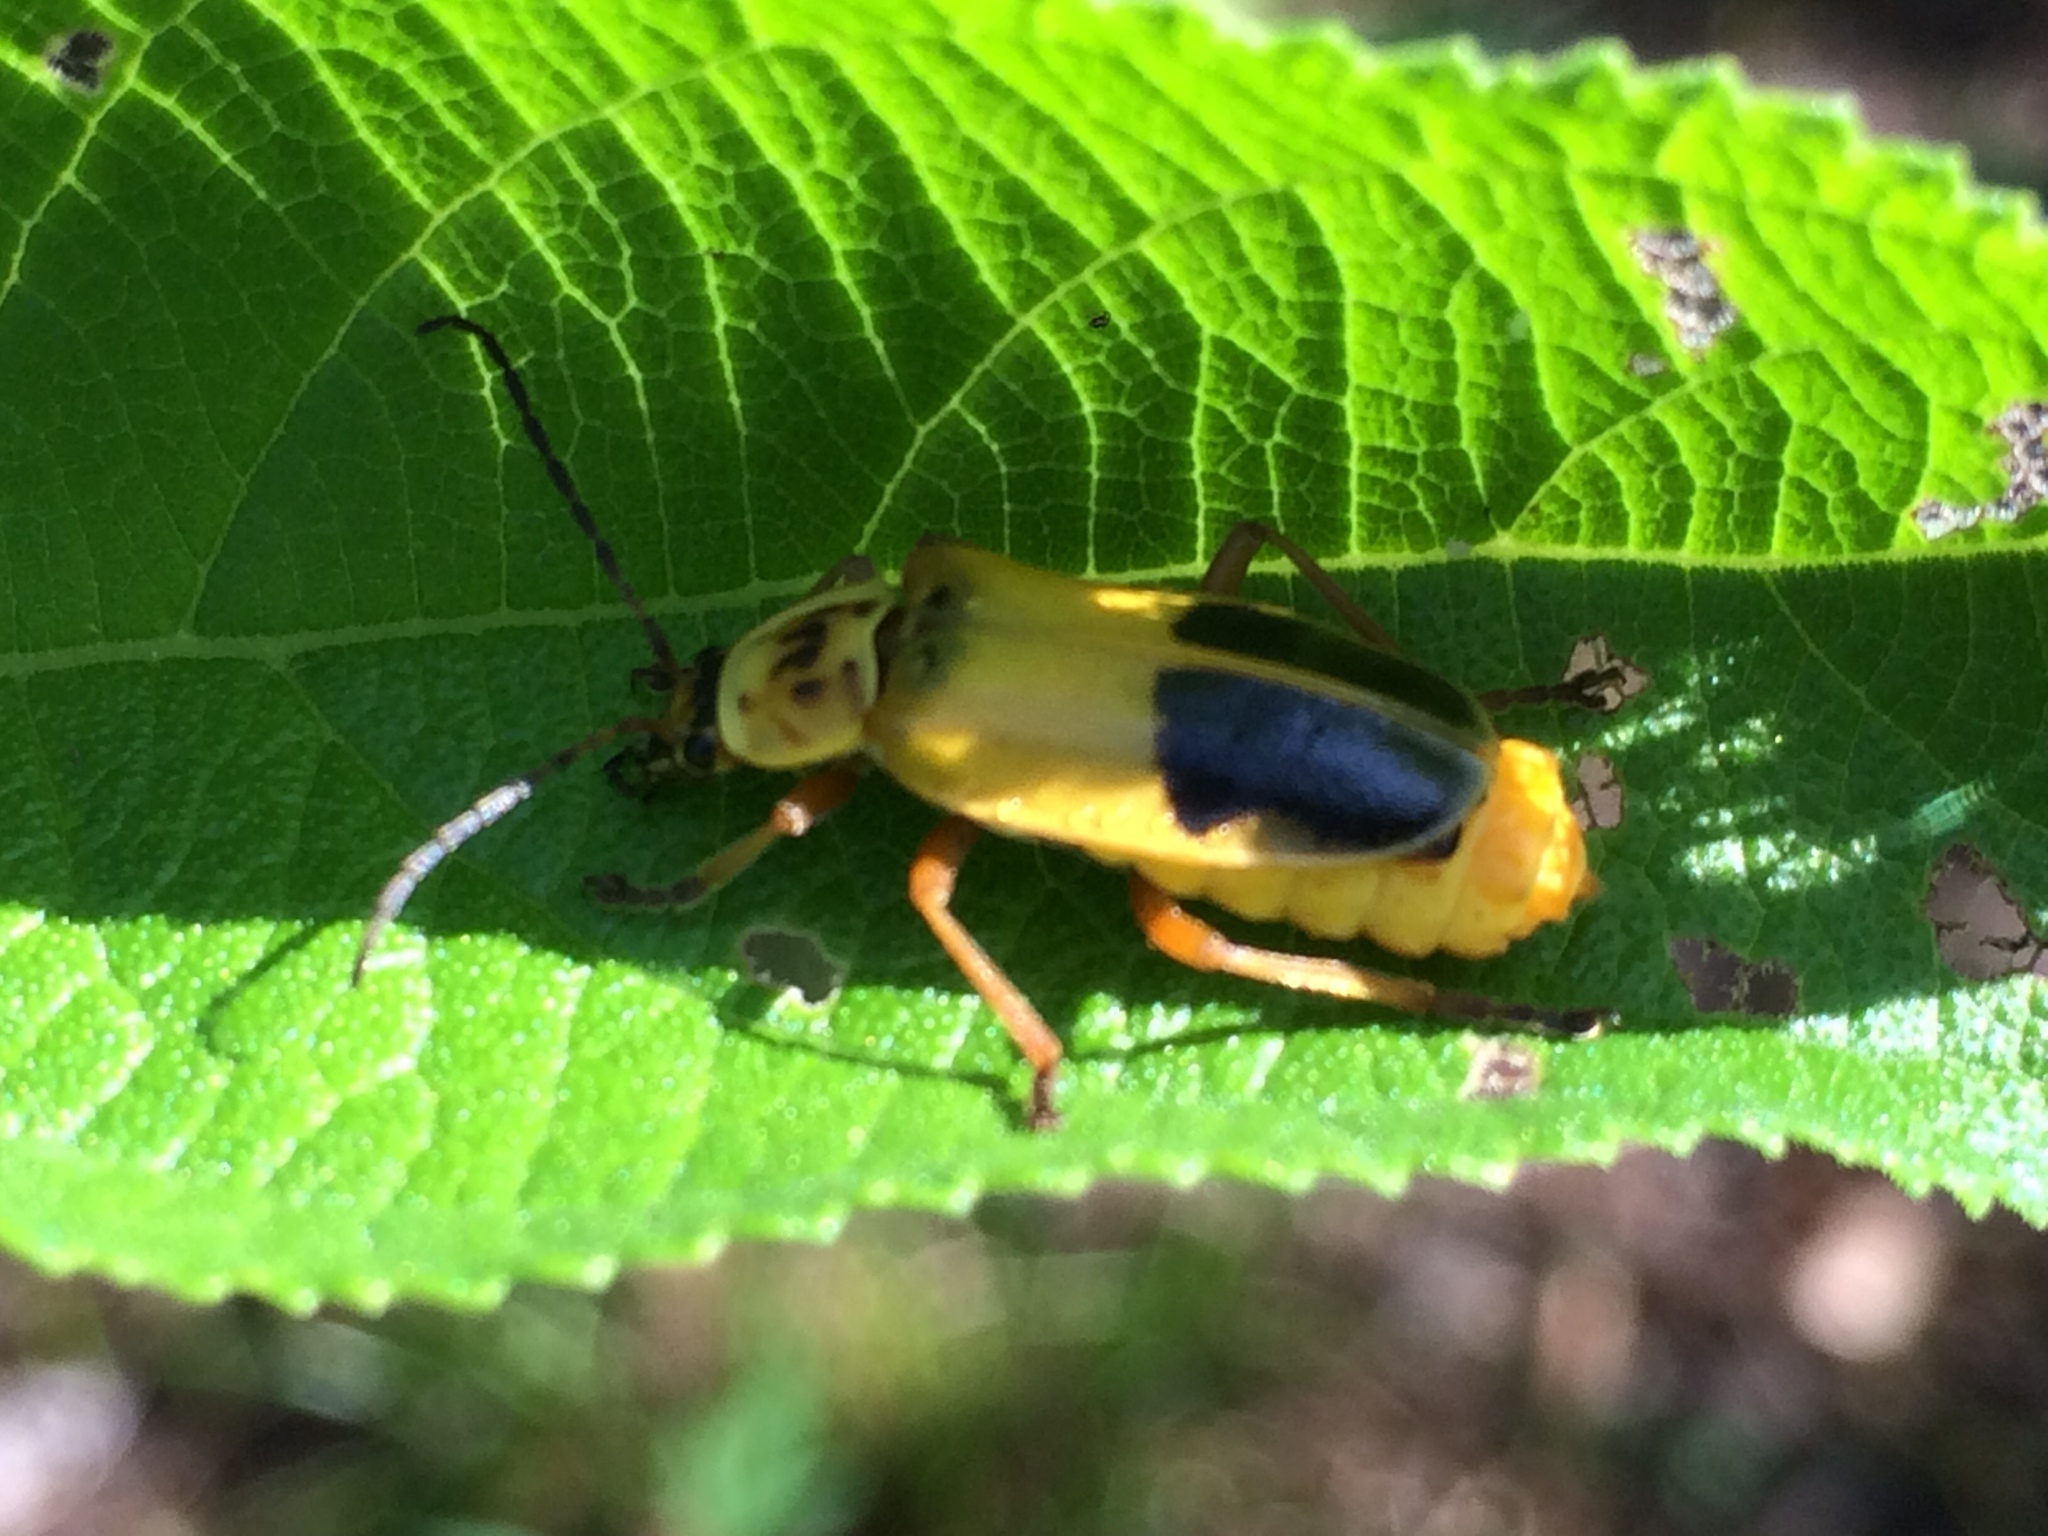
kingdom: Animalia
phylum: Arthropoda
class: Insecta
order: Coleoptera
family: Cantharidae
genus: Chauliognathus
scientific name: Chauliognathus
